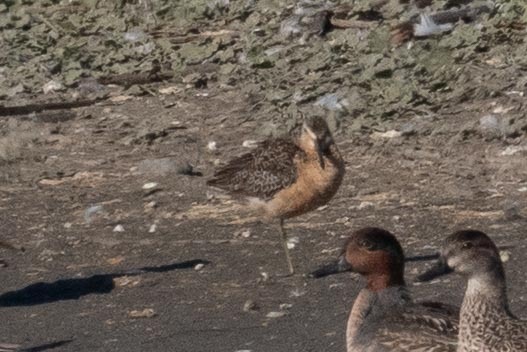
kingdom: Animalia
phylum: Chordata
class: Aves
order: Charadriiformes
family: Scolopacidae
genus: Limnodromus
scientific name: Limnodromus scolopaceus
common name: Long-billed dowitcher
